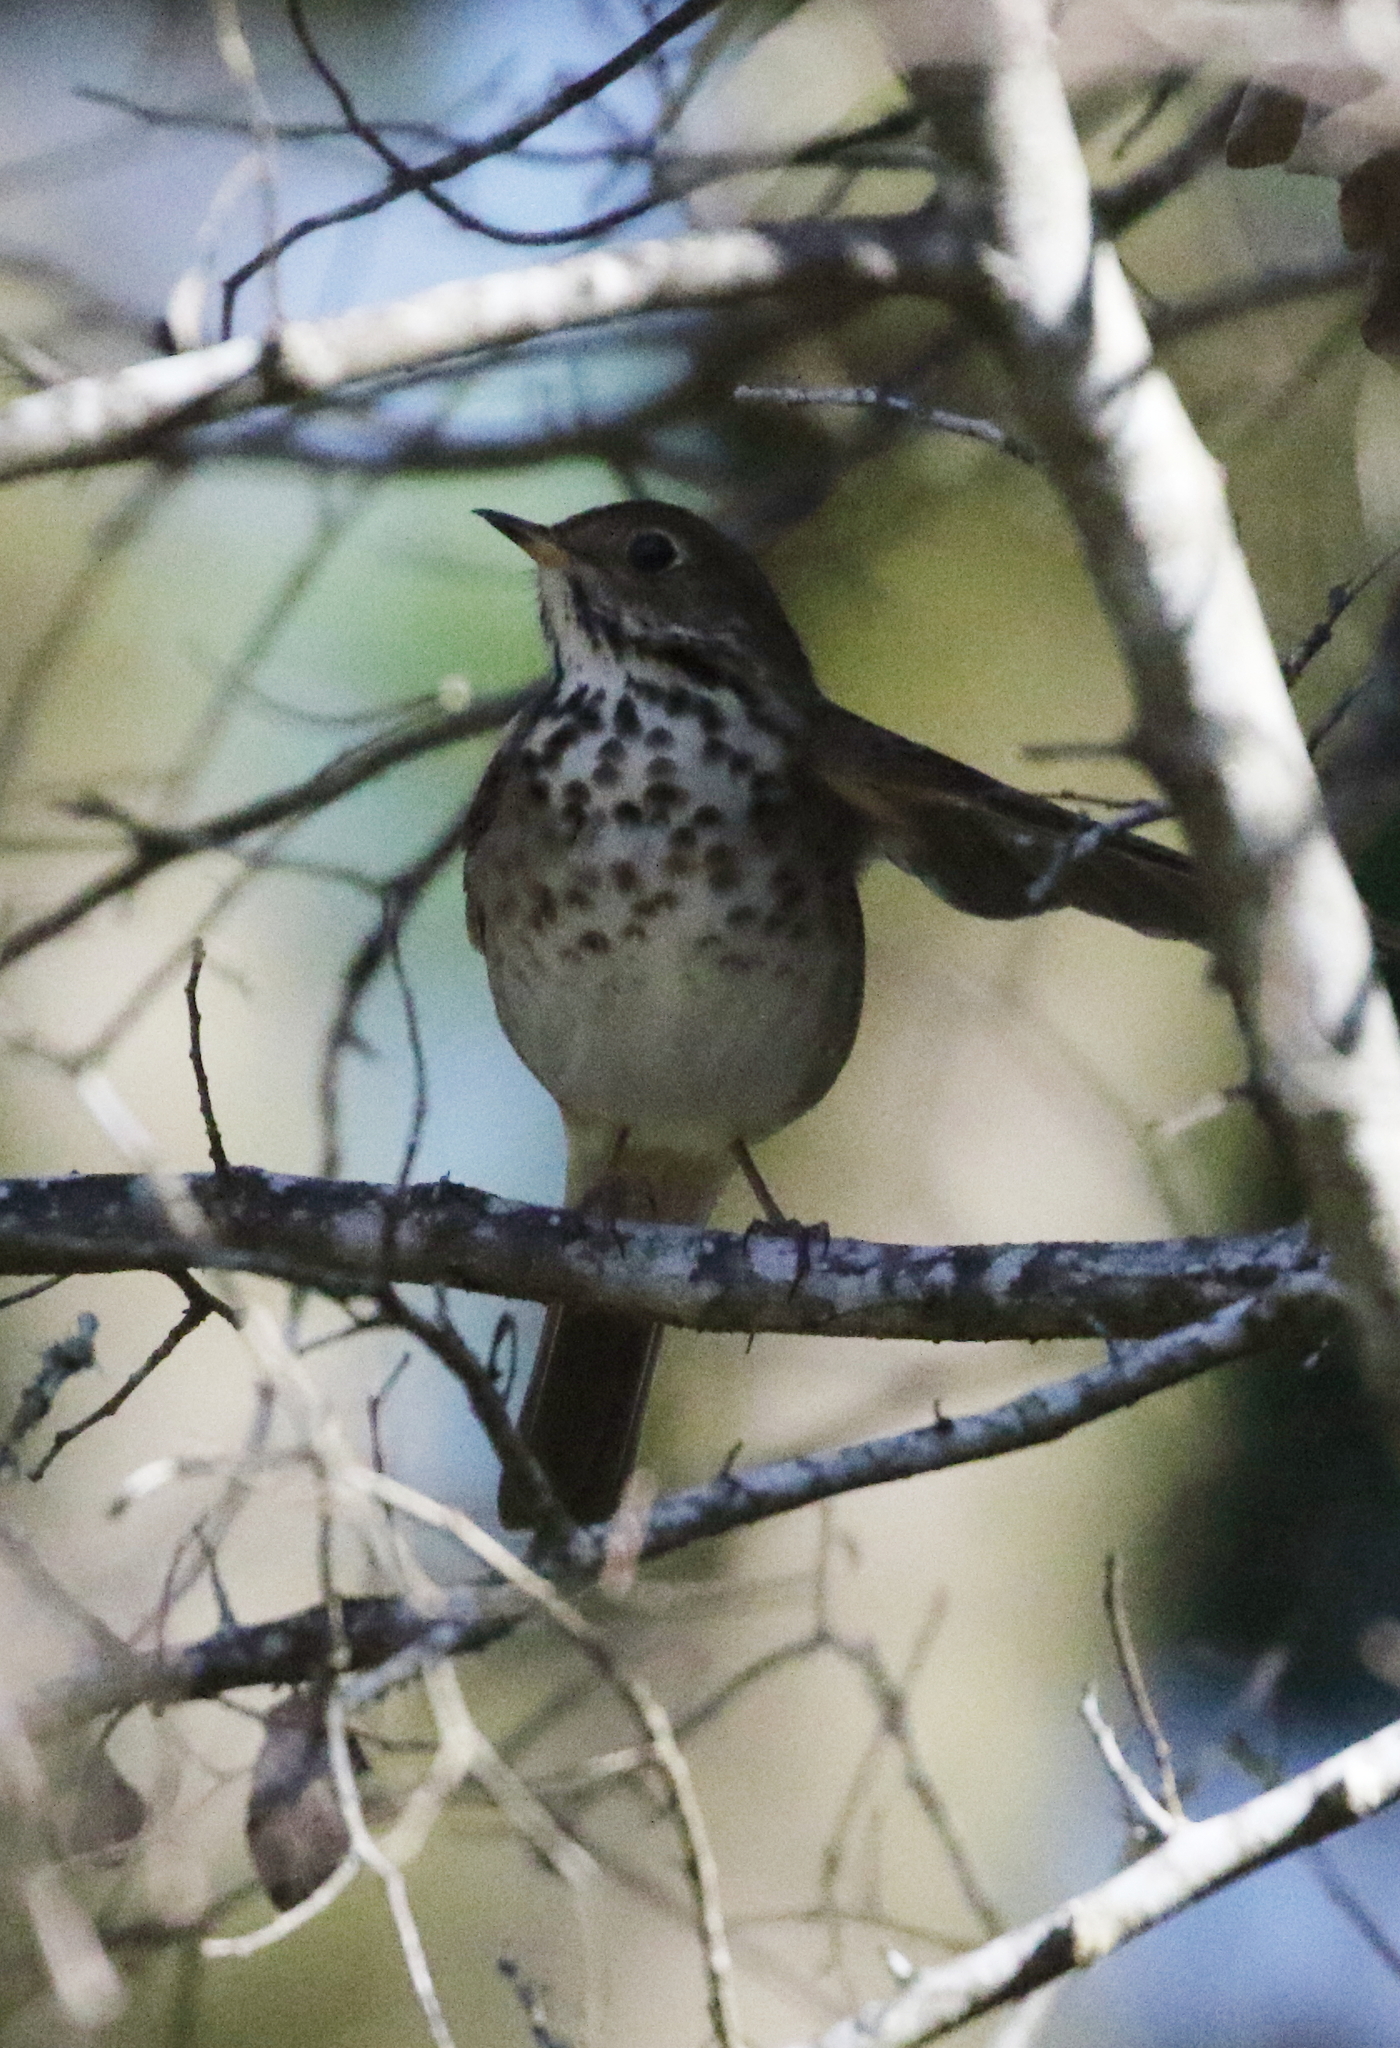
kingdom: Animalia
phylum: Chordata
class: Aves
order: Passeriformes
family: Turdidae
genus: Catharus
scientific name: Catharus guttatus
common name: Hermit thrush
